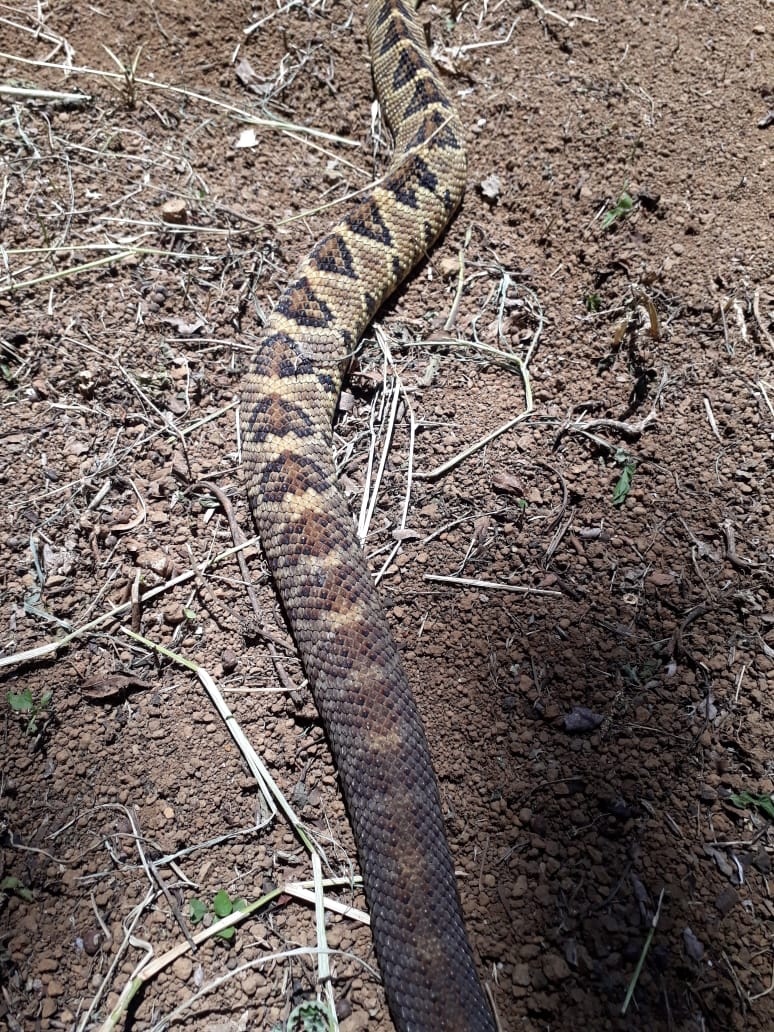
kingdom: Animalia
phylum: Chordata
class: Squamata
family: Viperidae
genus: Crotalus
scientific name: Crotalus simus
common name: Middle american rattlesnake
